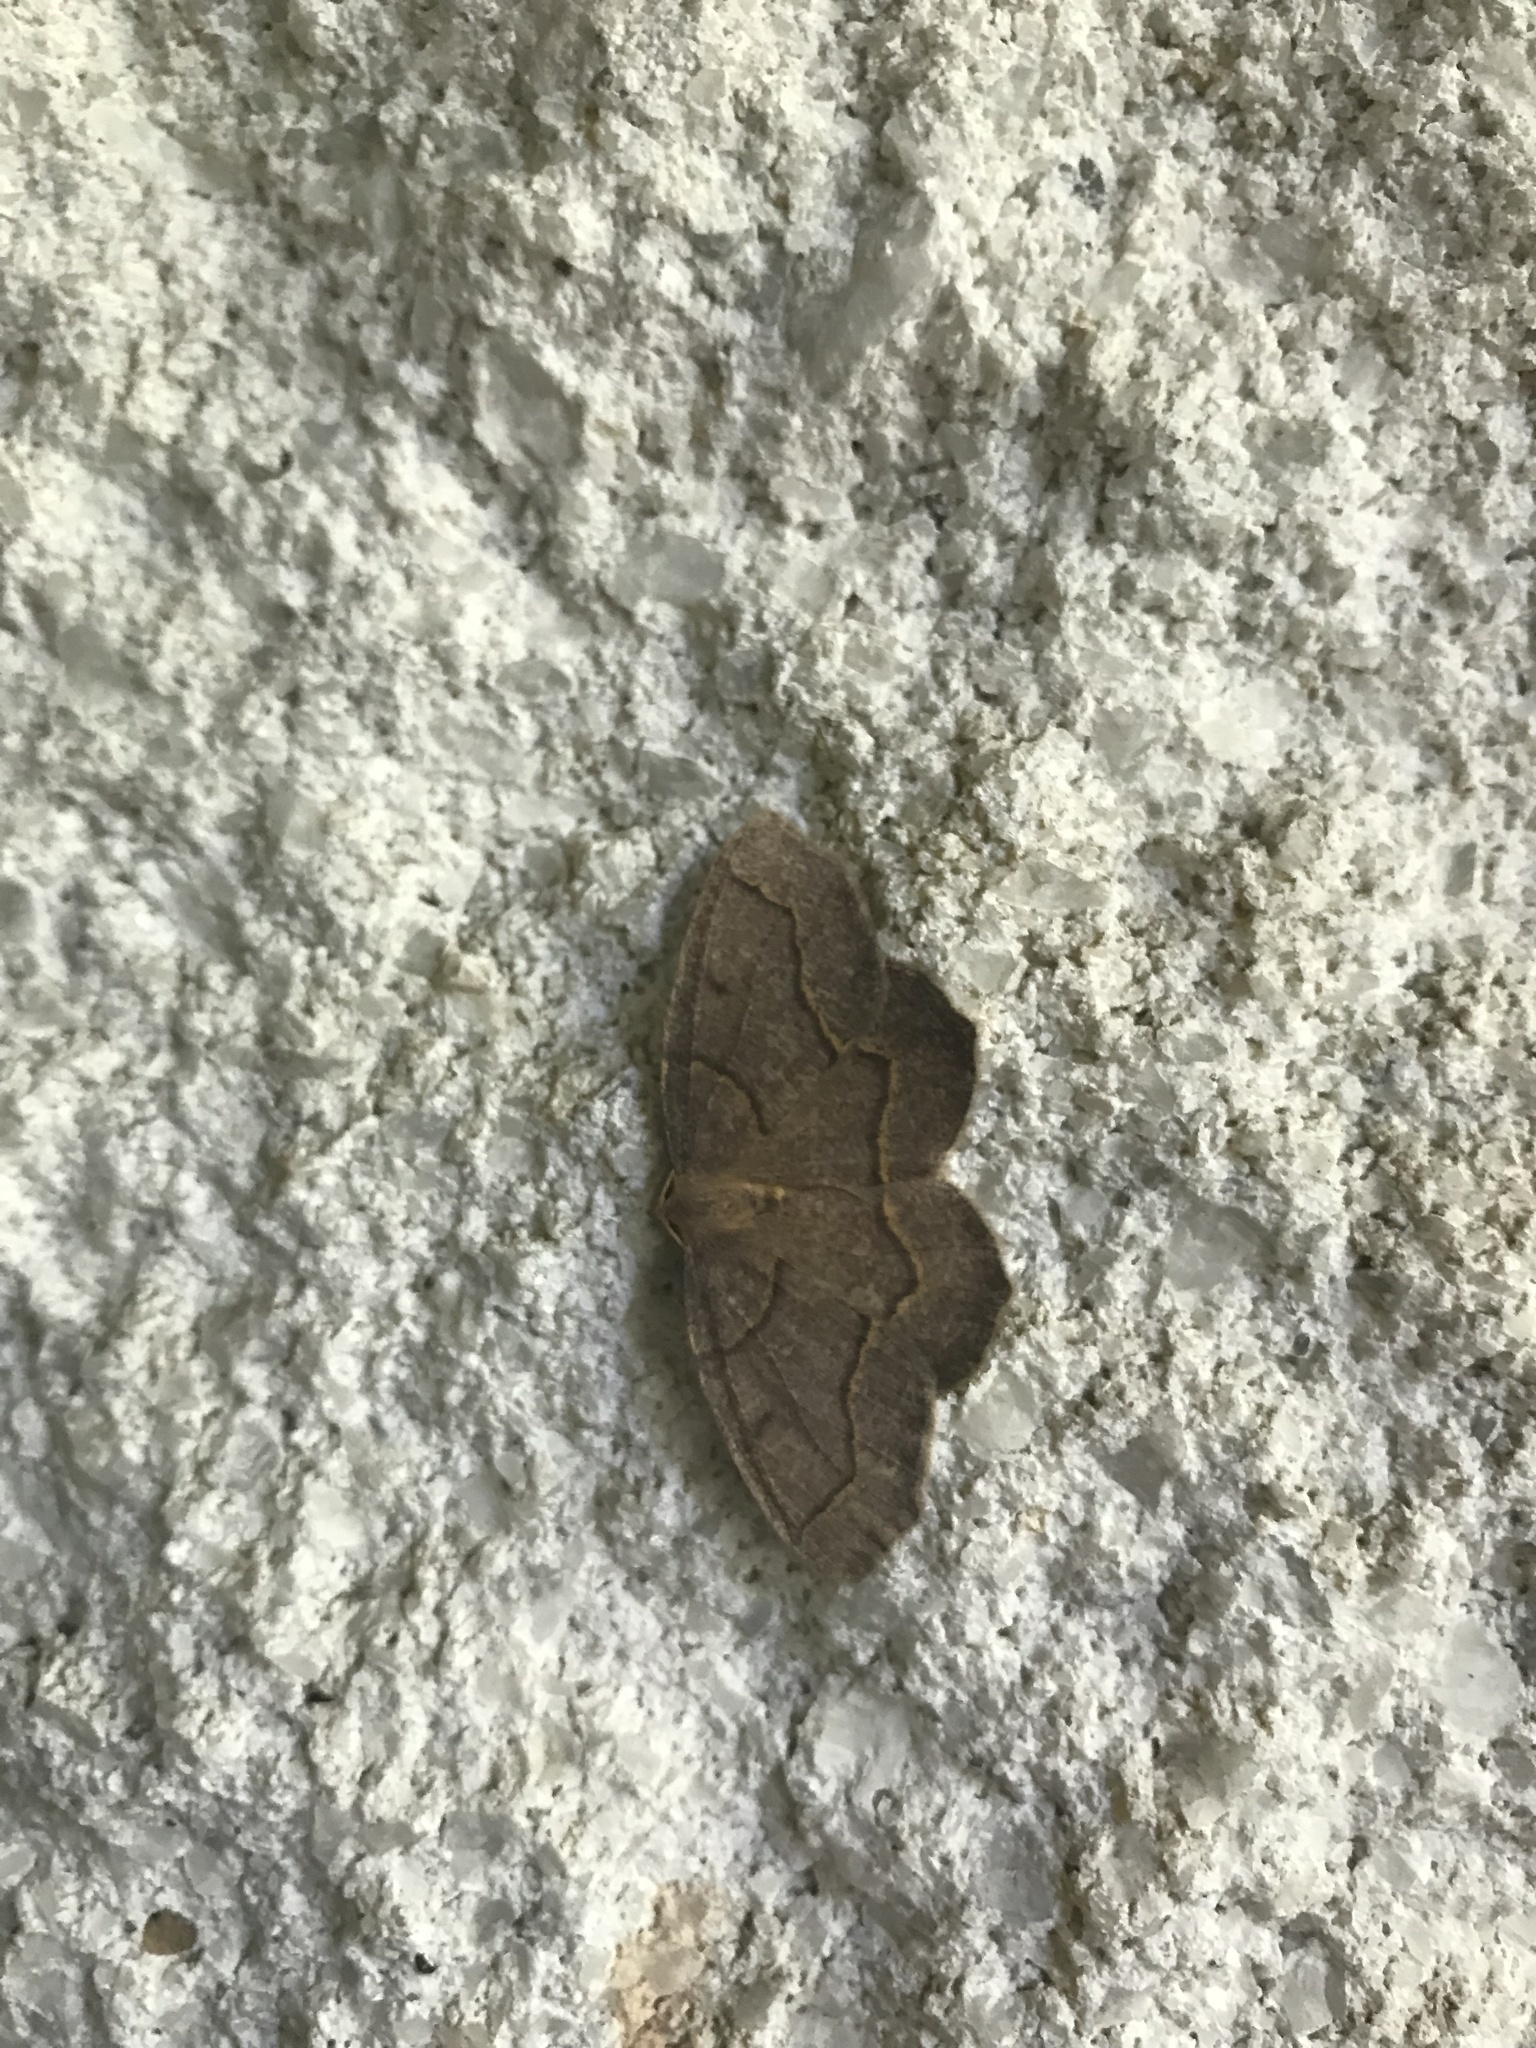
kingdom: Animalia
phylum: Arthropoda
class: Insecta
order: Lepidoptera
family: Geometridae
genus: Lambdina
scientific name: Lambdina fiscellaria
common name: Hemlock looper
